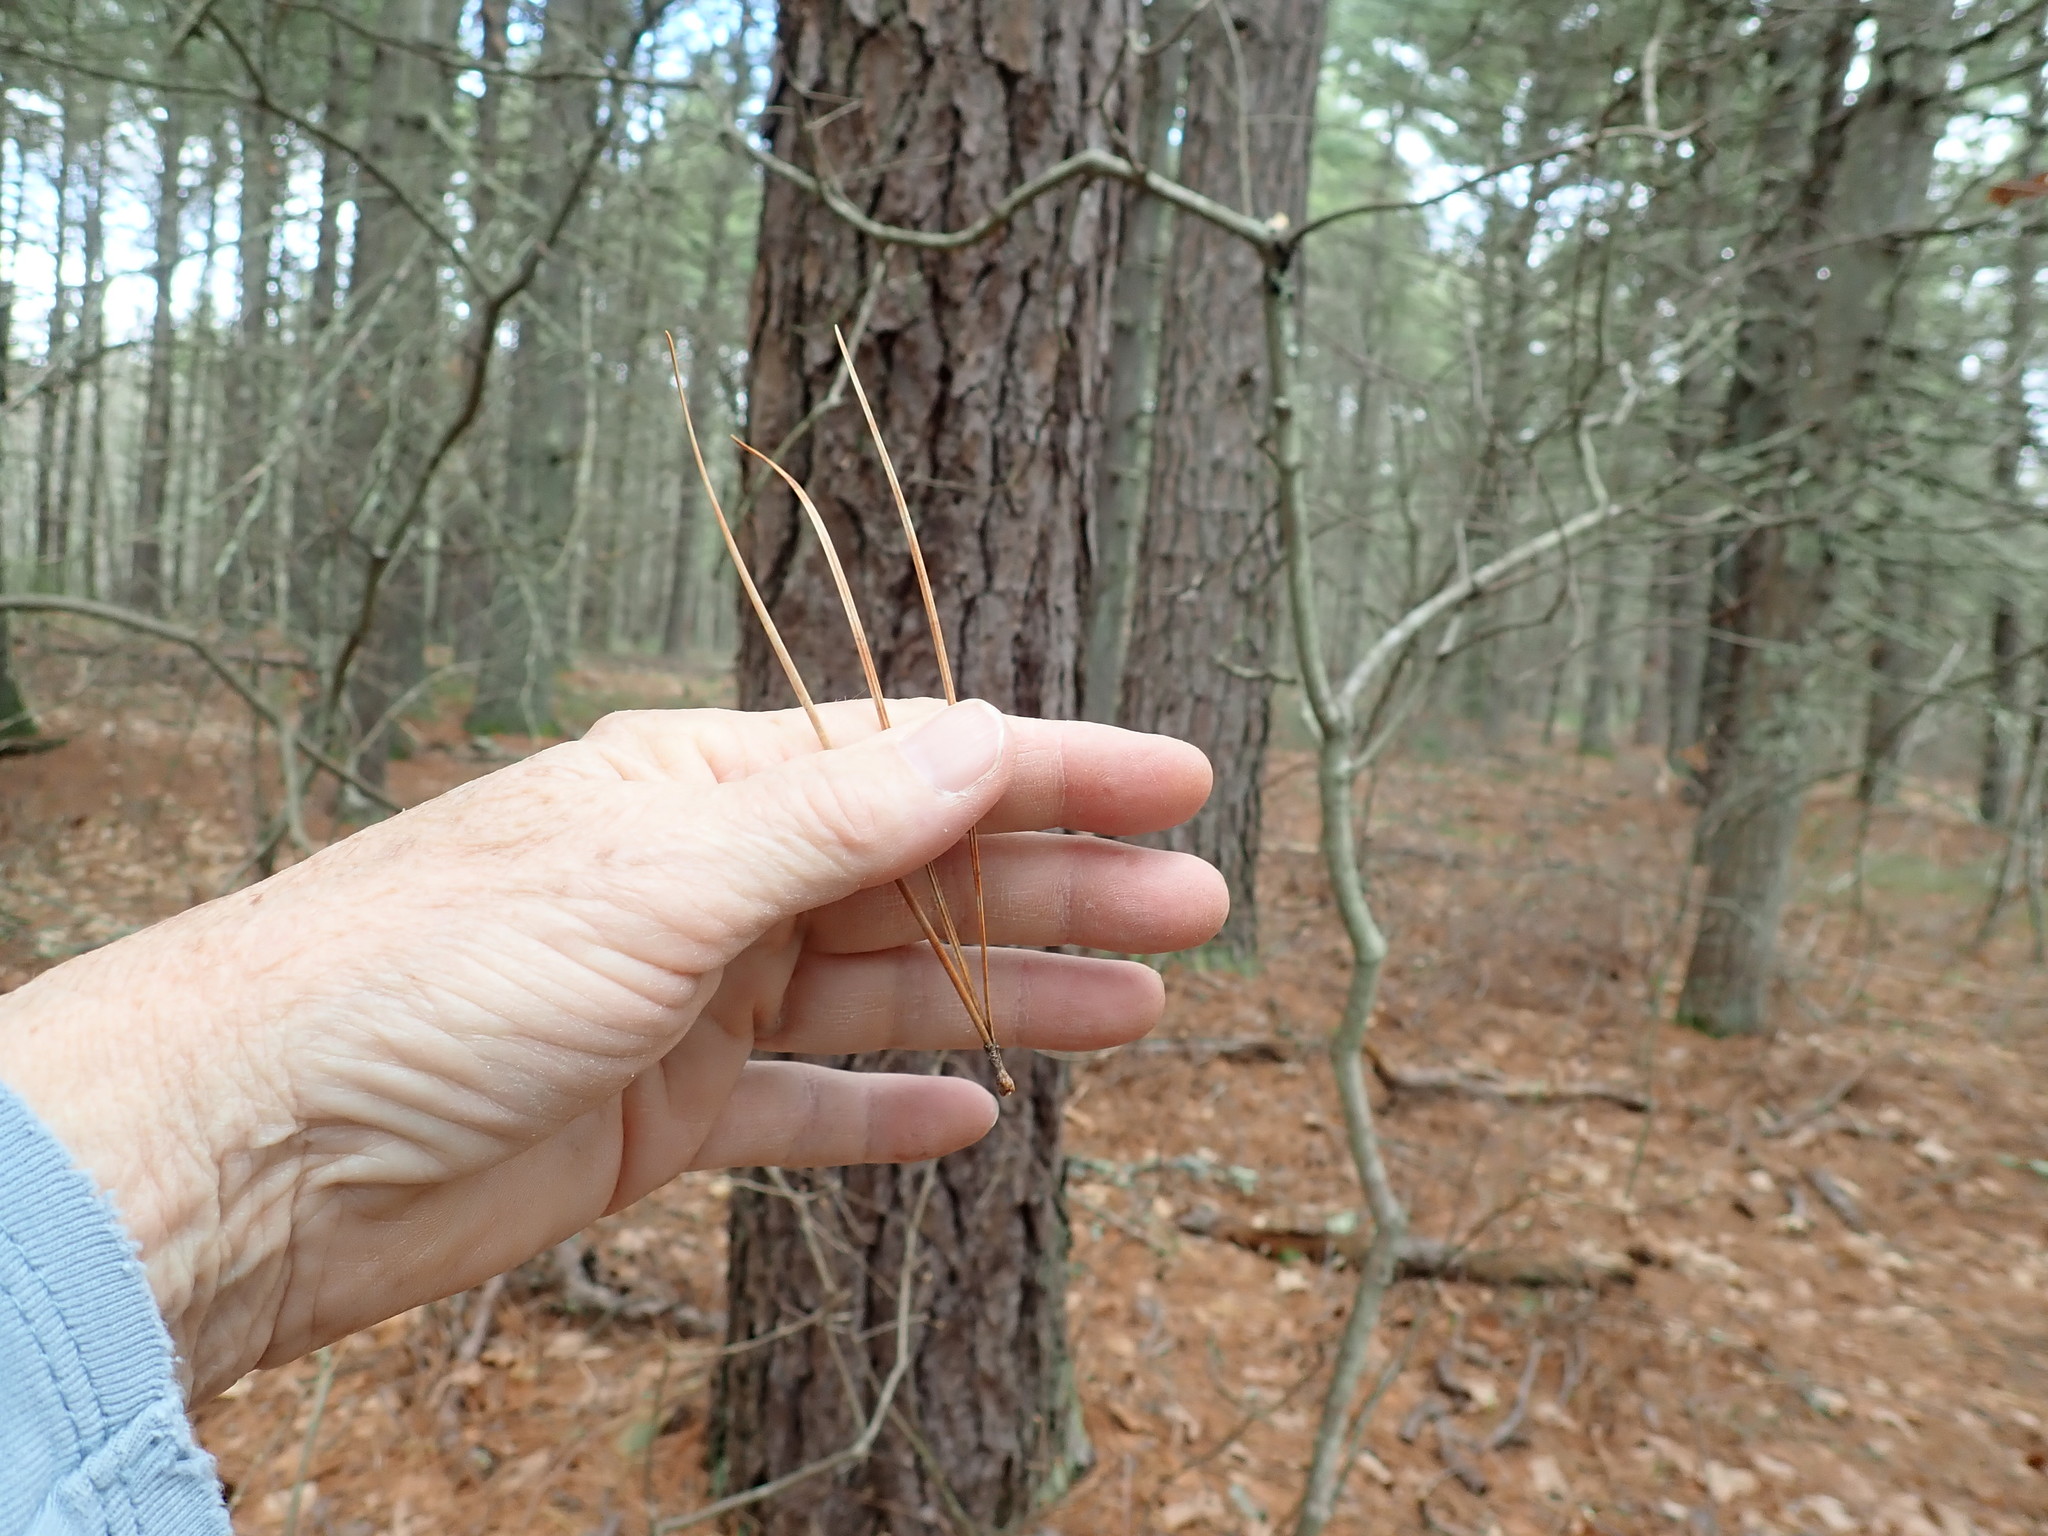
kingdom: Plantae
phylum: Tracheophyta
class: Pinopsida
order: Pinales
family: Pinaceae
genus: Pinus
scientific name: Pinus rigida
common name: Pitch pine
